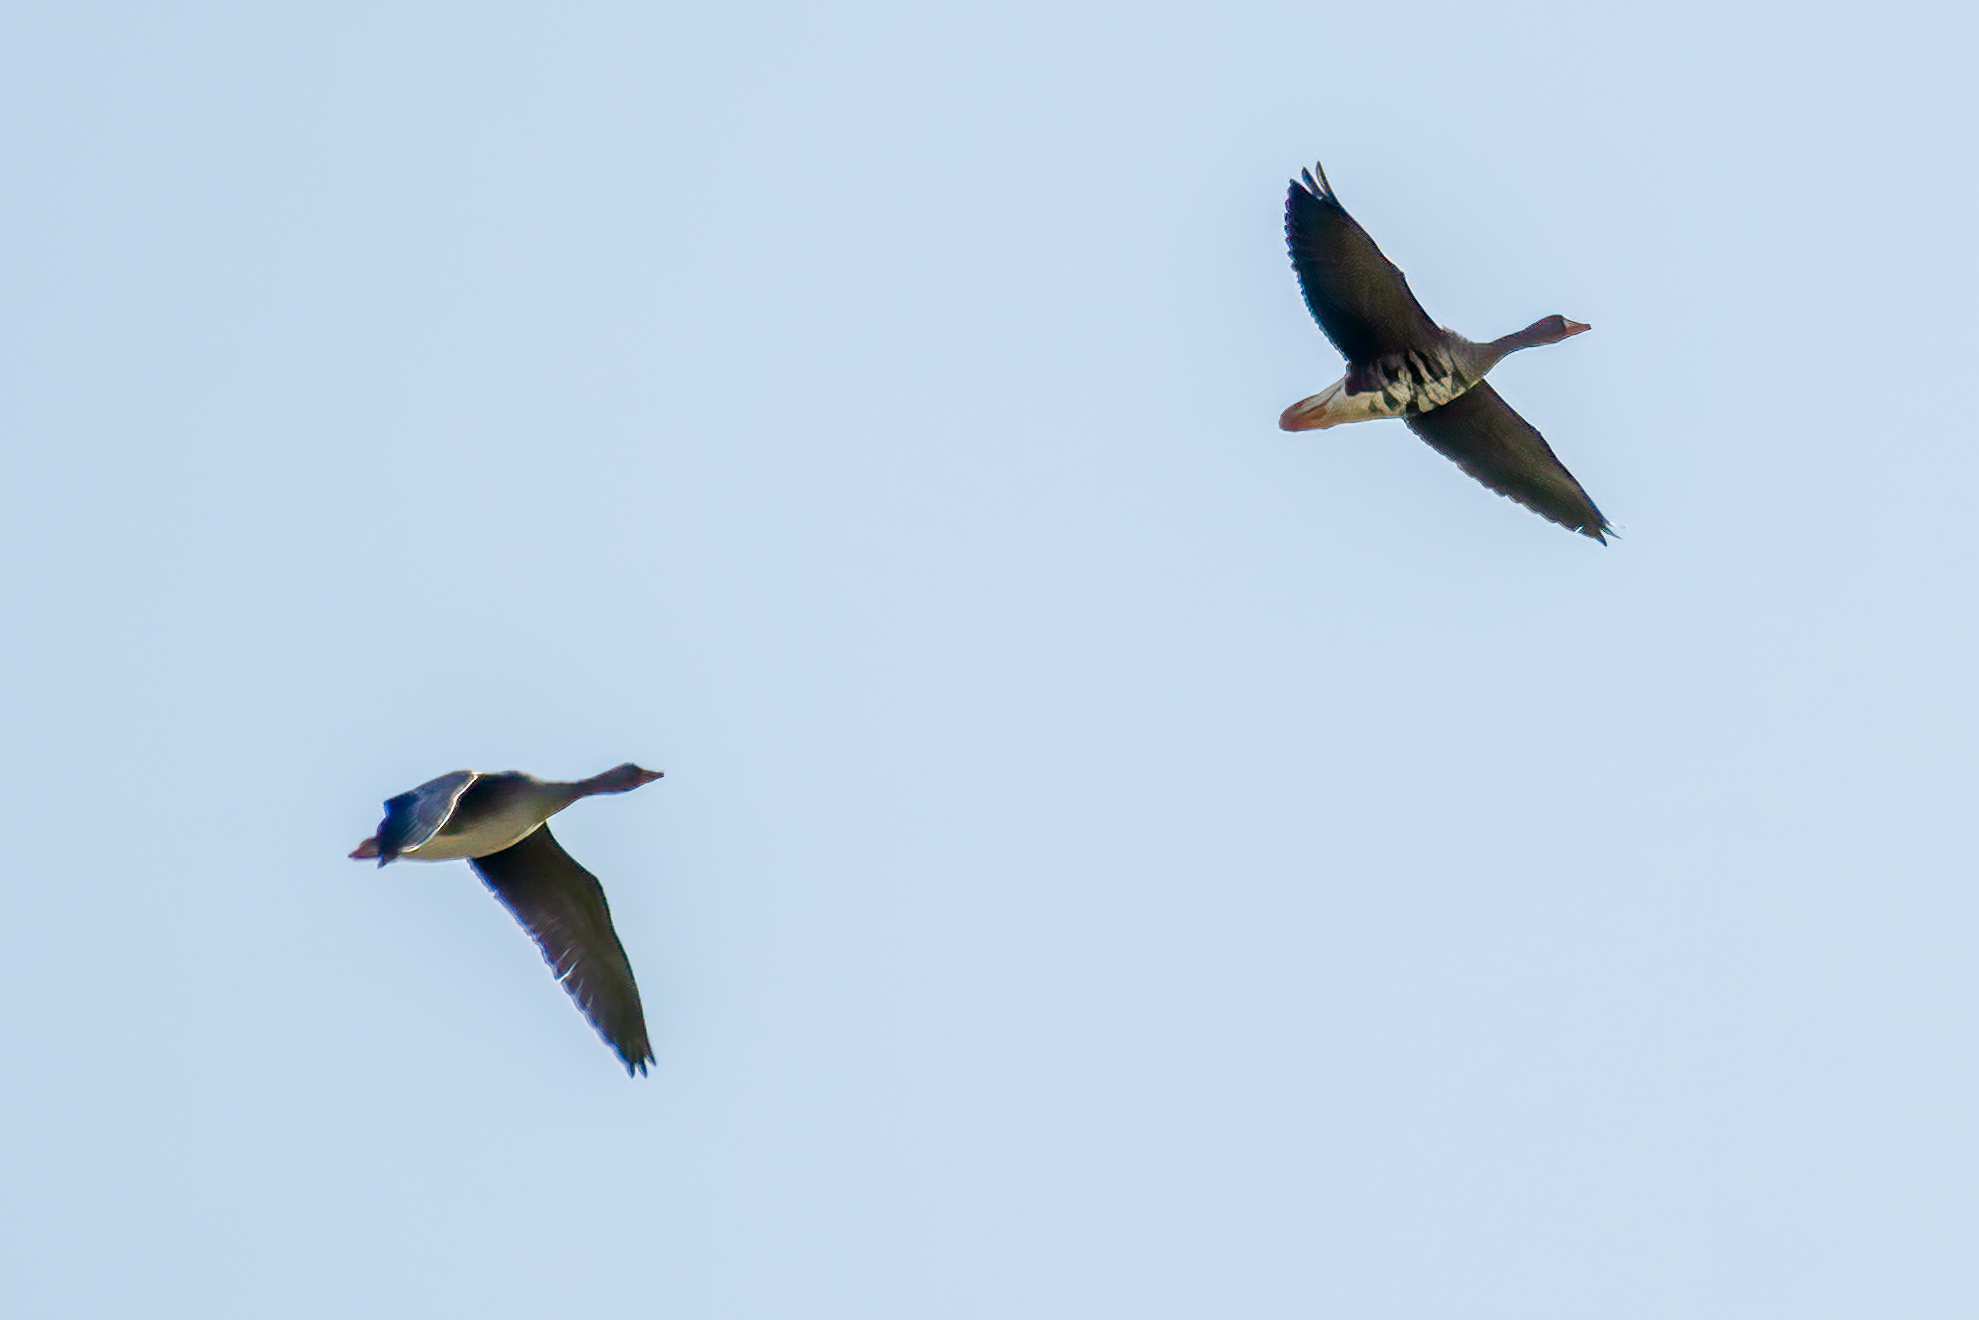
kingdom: Animalia
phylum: Chordata
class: Aves
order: Anseriformes
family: Anatidae
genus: Anser
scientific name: Anser albifrons
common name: Greater white-fronted goose
